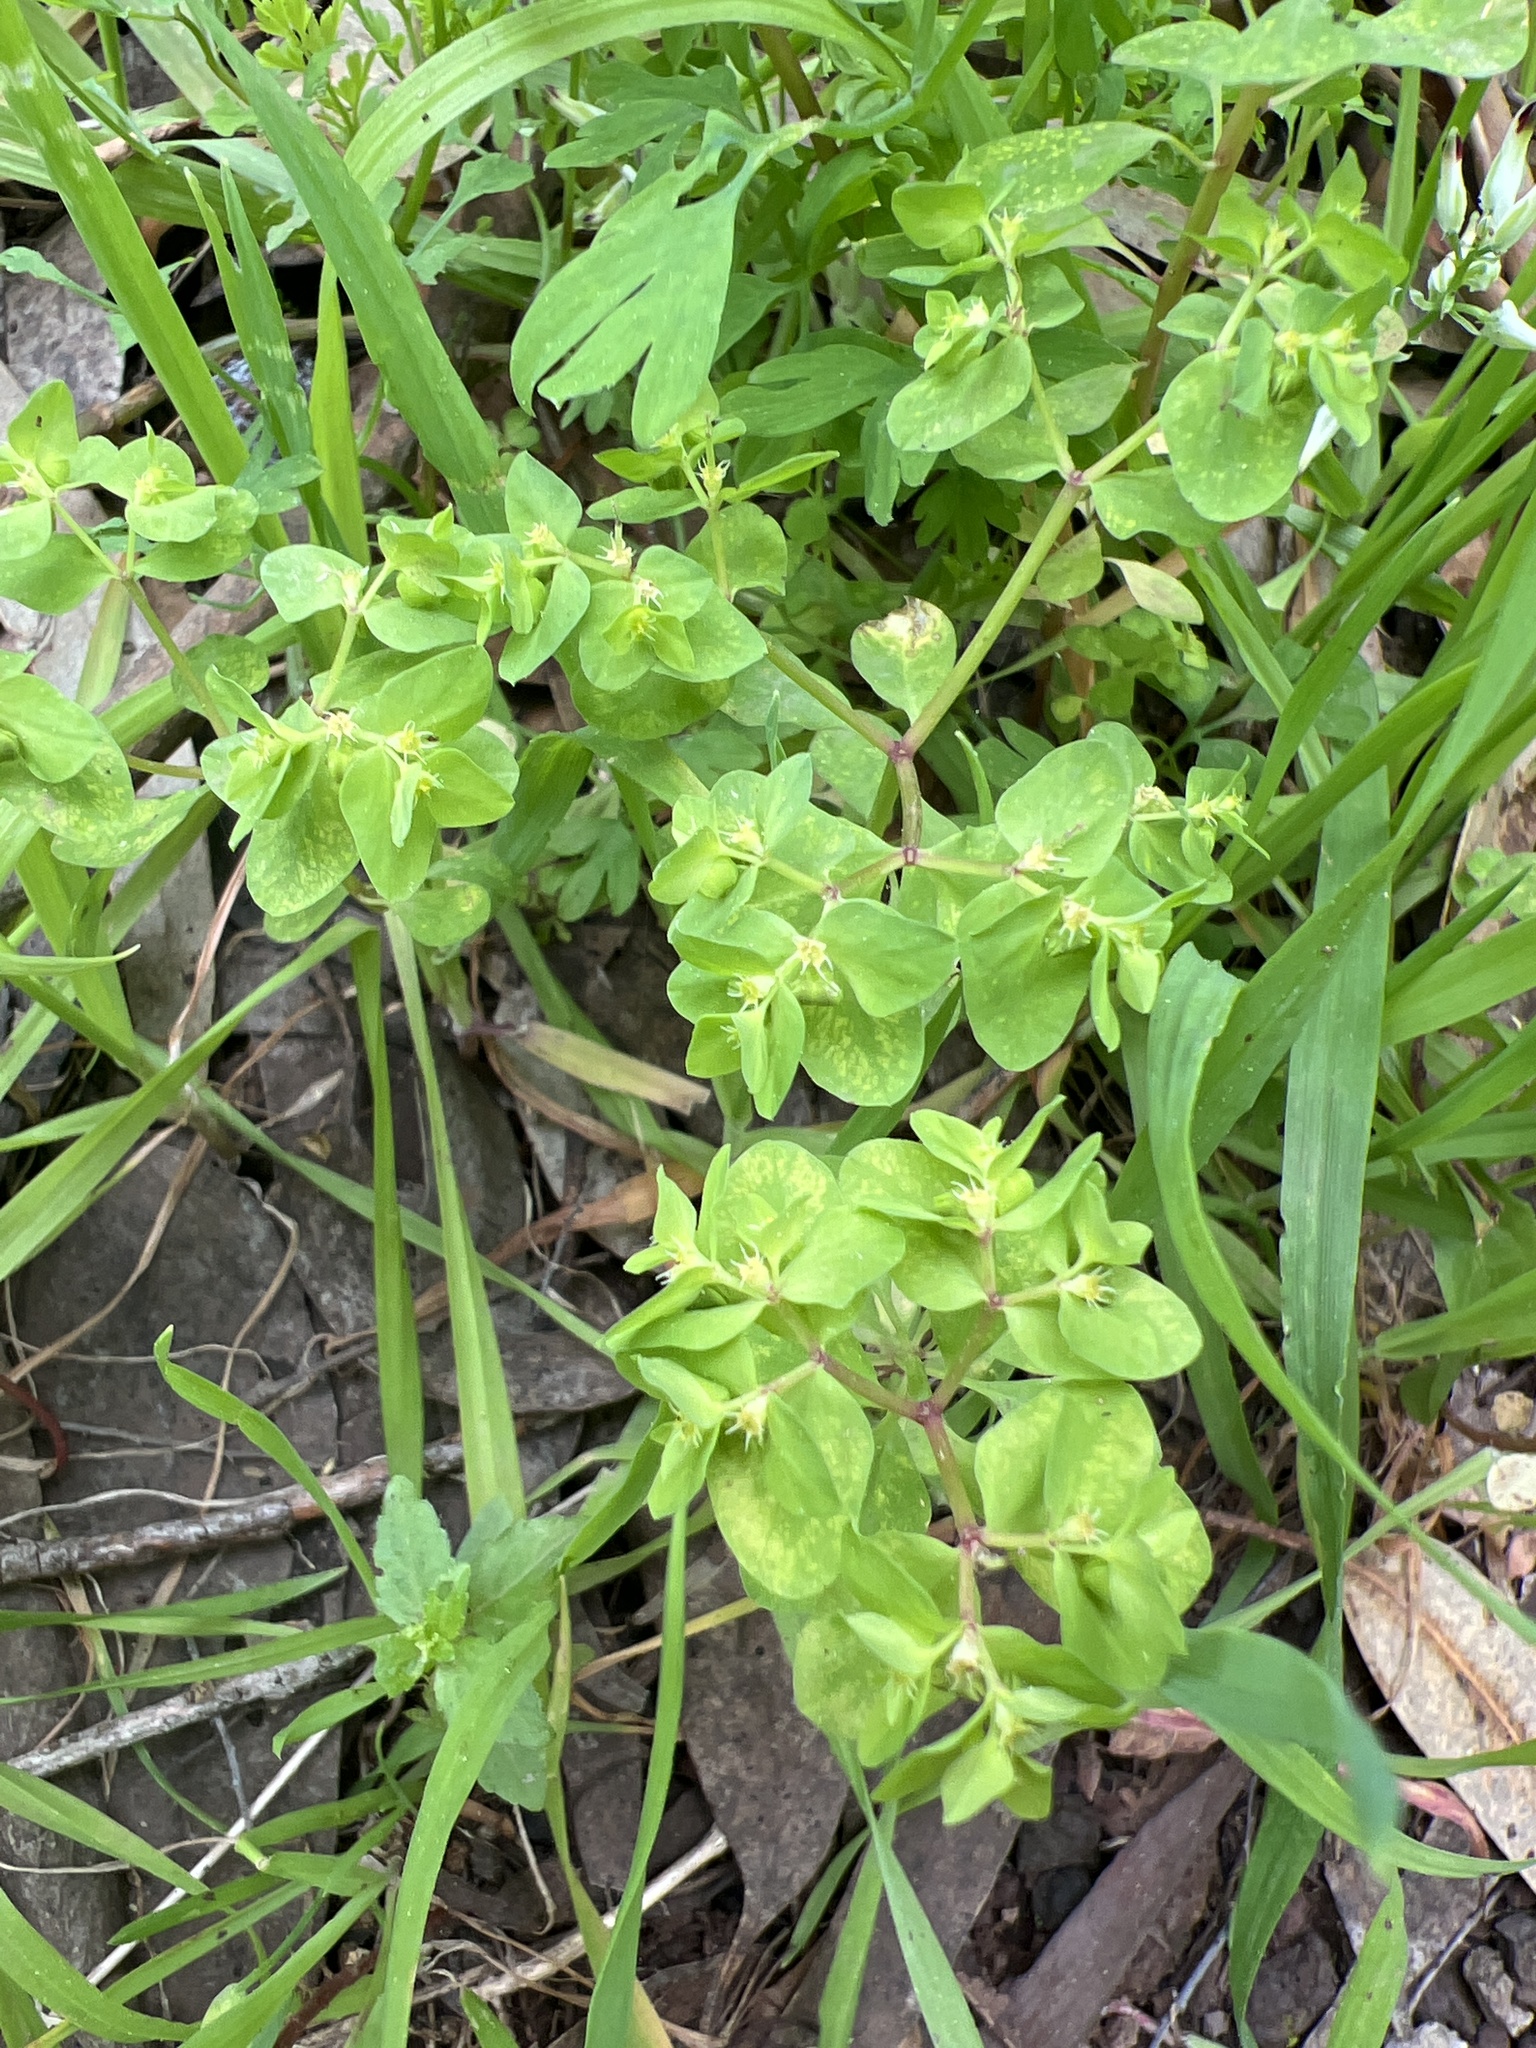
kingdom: Plantae
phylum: Tracheophyta
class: Magnoliopsida
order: Malpighiales
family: Euphorbiaceae
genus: Euphorbia
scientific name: Euphorbia peplus
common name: Petty spurge
